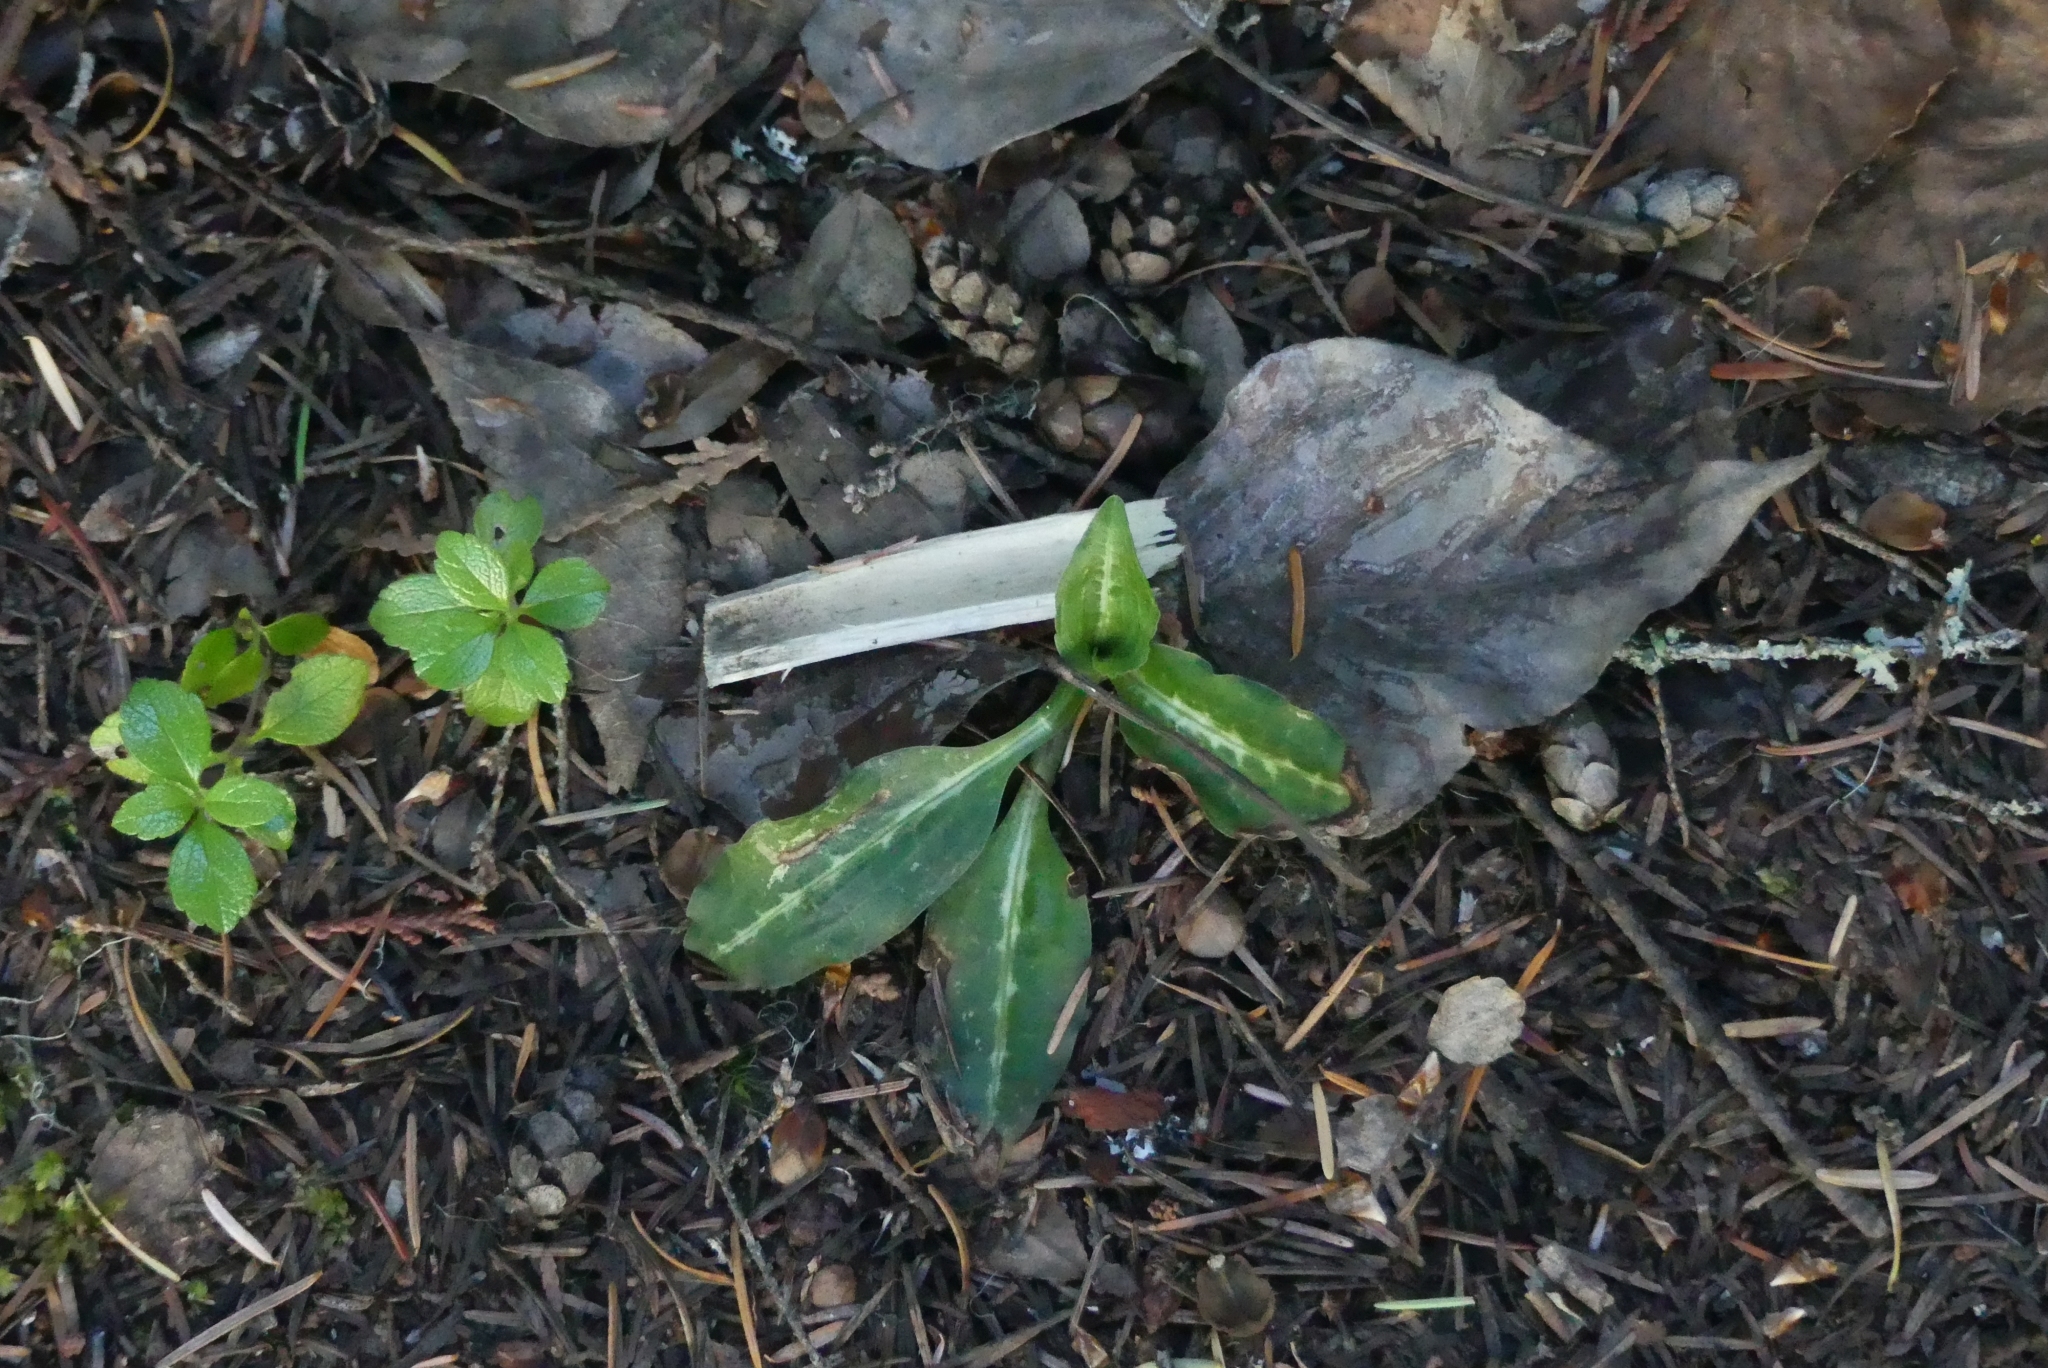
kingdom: Plantae
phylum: Tracheophyta
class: Liliopsida
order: Asparagales
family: Orchidaceae
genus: Goodyera
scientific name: Goodyera oblongifolia
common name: Giant rattlesnake-plantain
